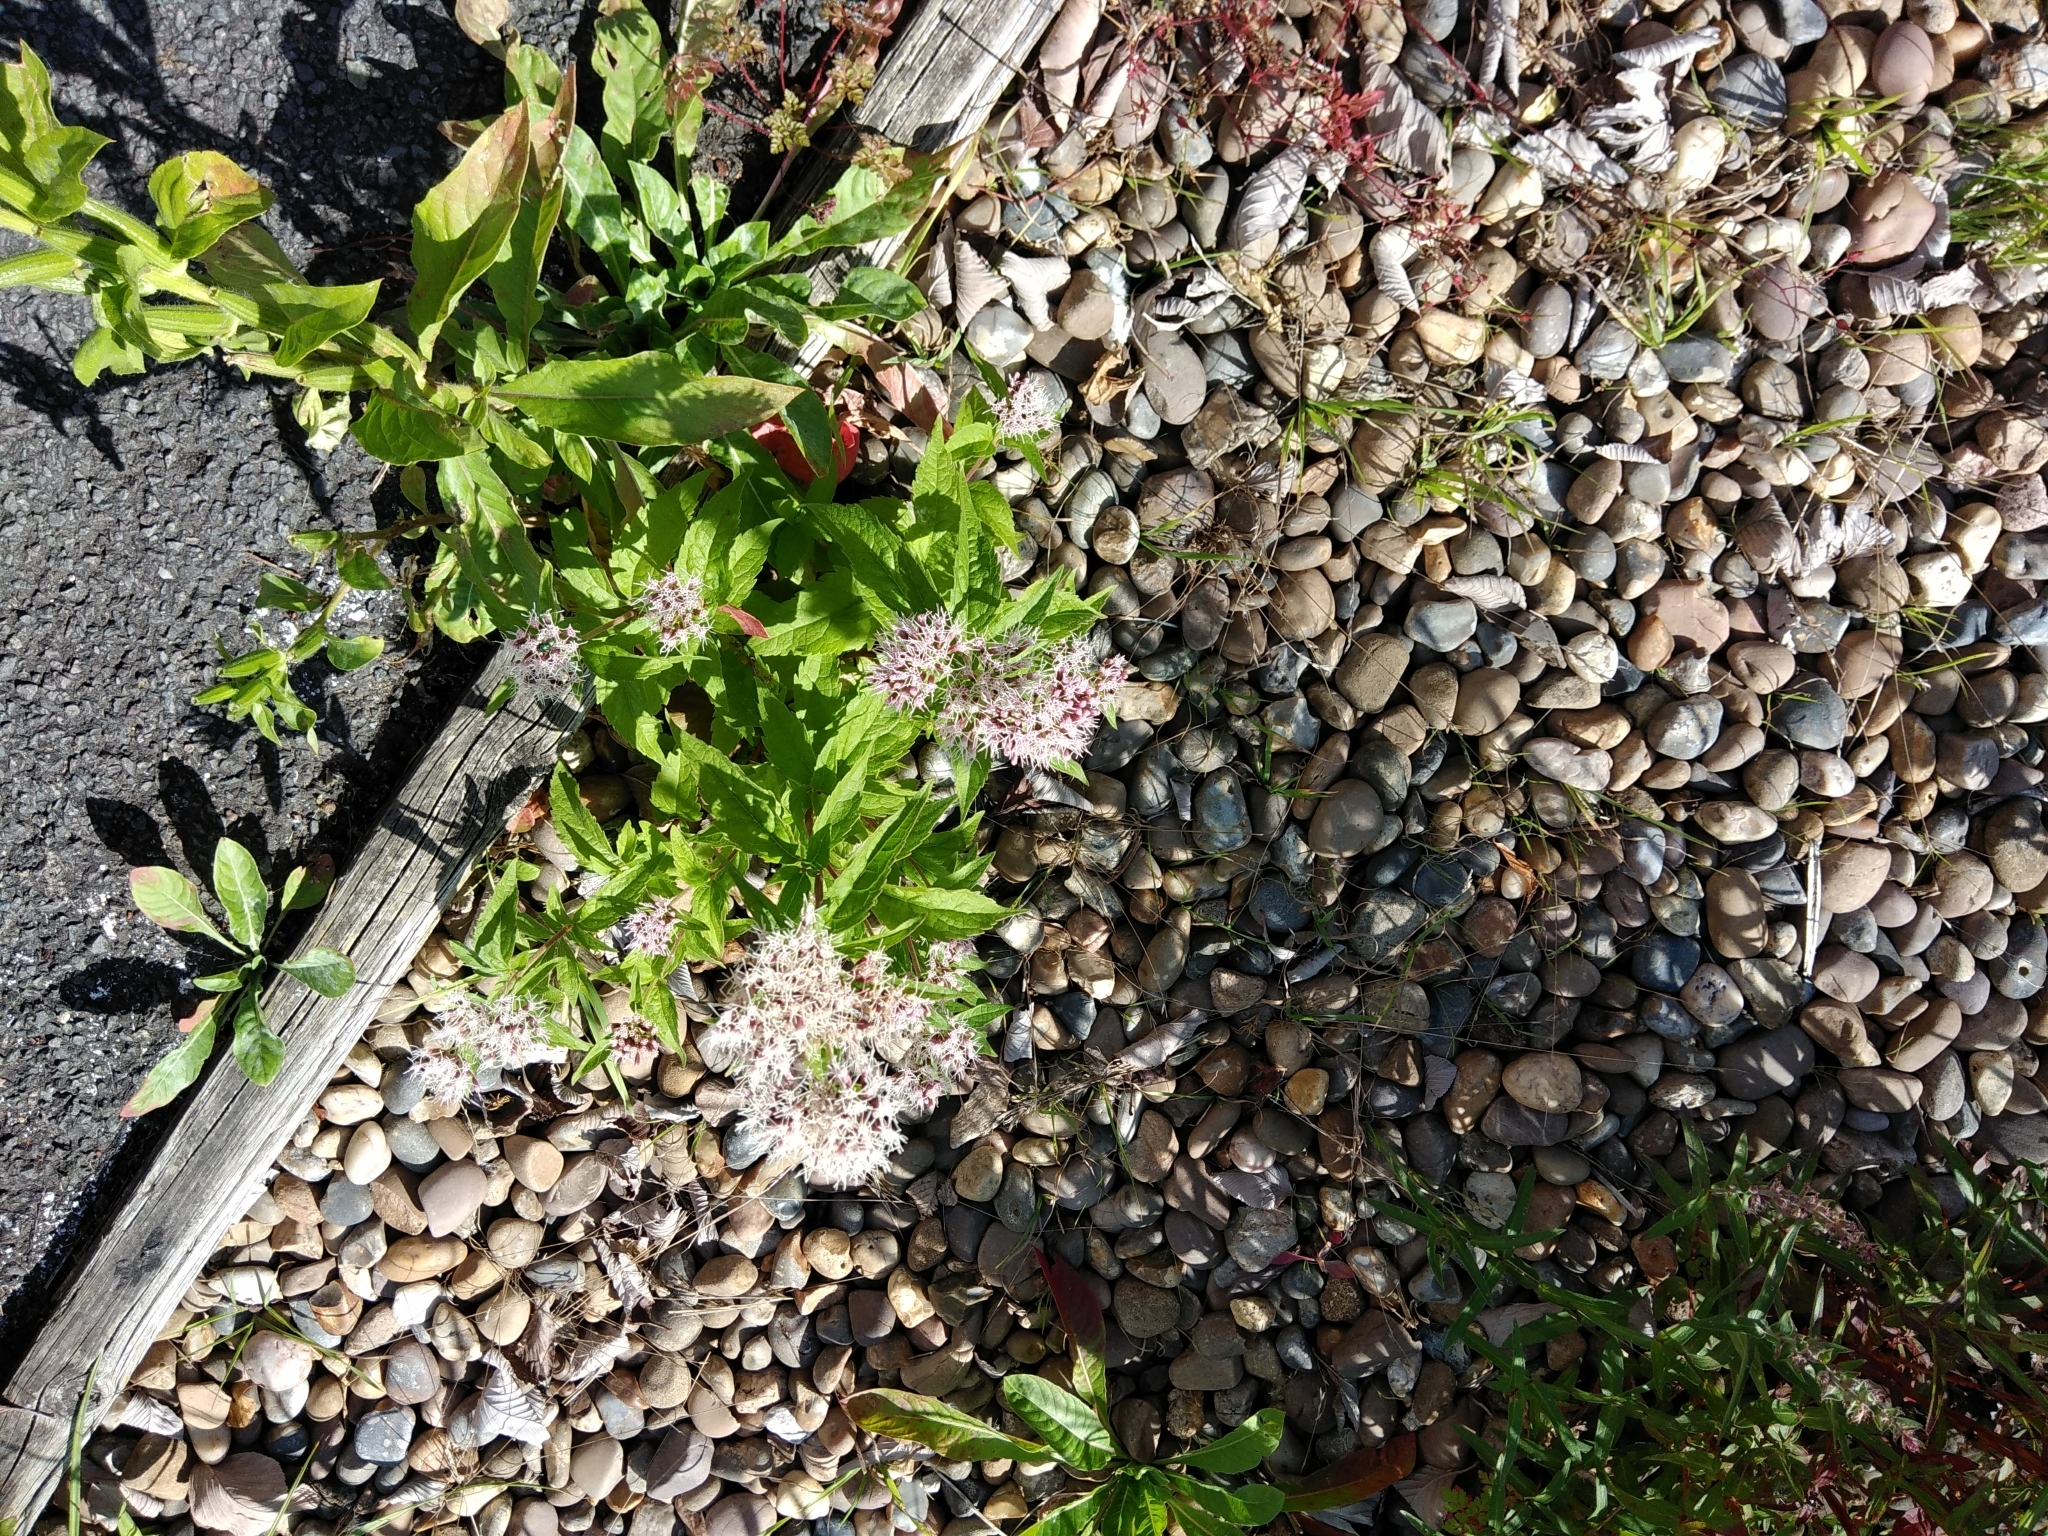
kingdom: Plantae
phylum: Tracheophyta
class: Magnoliopsida
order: Asterales
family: Asteraceae
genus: Eupatorium
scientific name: Eupatorium cannabinum
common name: Hemp-agrimony
